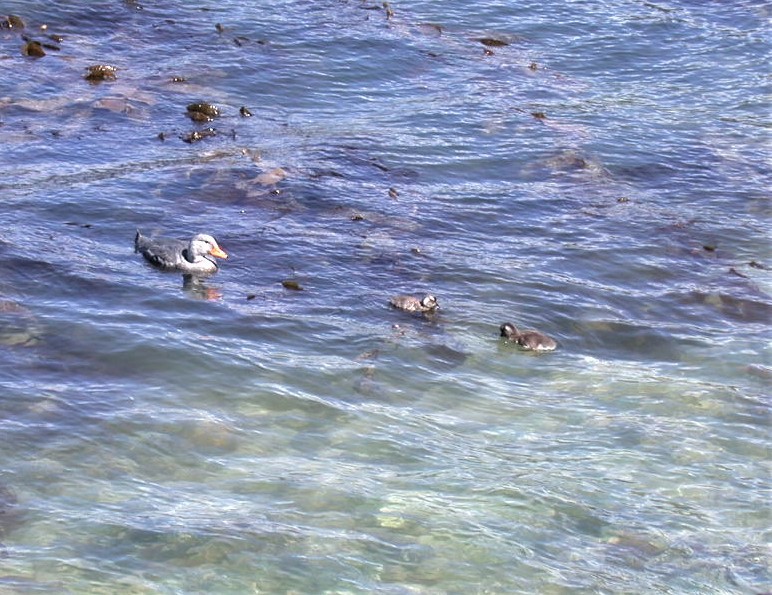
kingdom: Animalia
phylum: Chordata
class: Aves
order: Anseriformes
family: Anatidae
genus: Tachyeres
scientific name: Tachyeres pteneres
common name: Fuegian steamer duck
